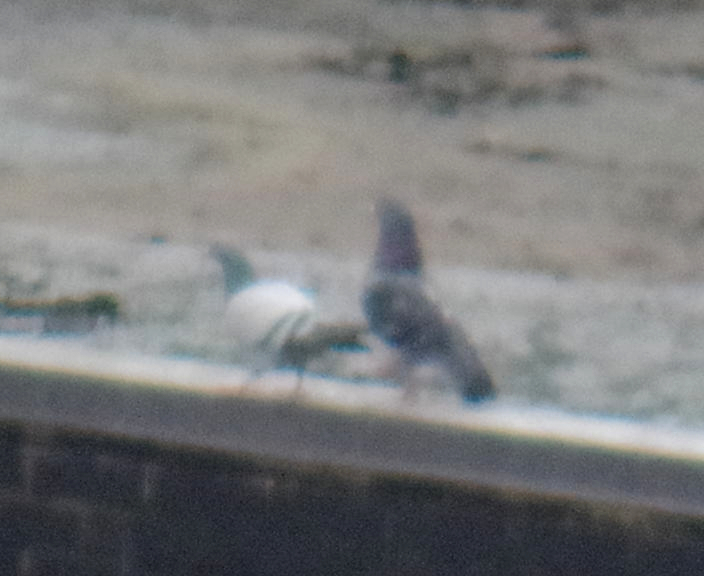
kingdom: Animalia
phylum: Chordata
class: Aves
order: Columbiformes
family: Columbidae
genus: Columba
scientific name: Columba livia
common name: Rock pigeon
